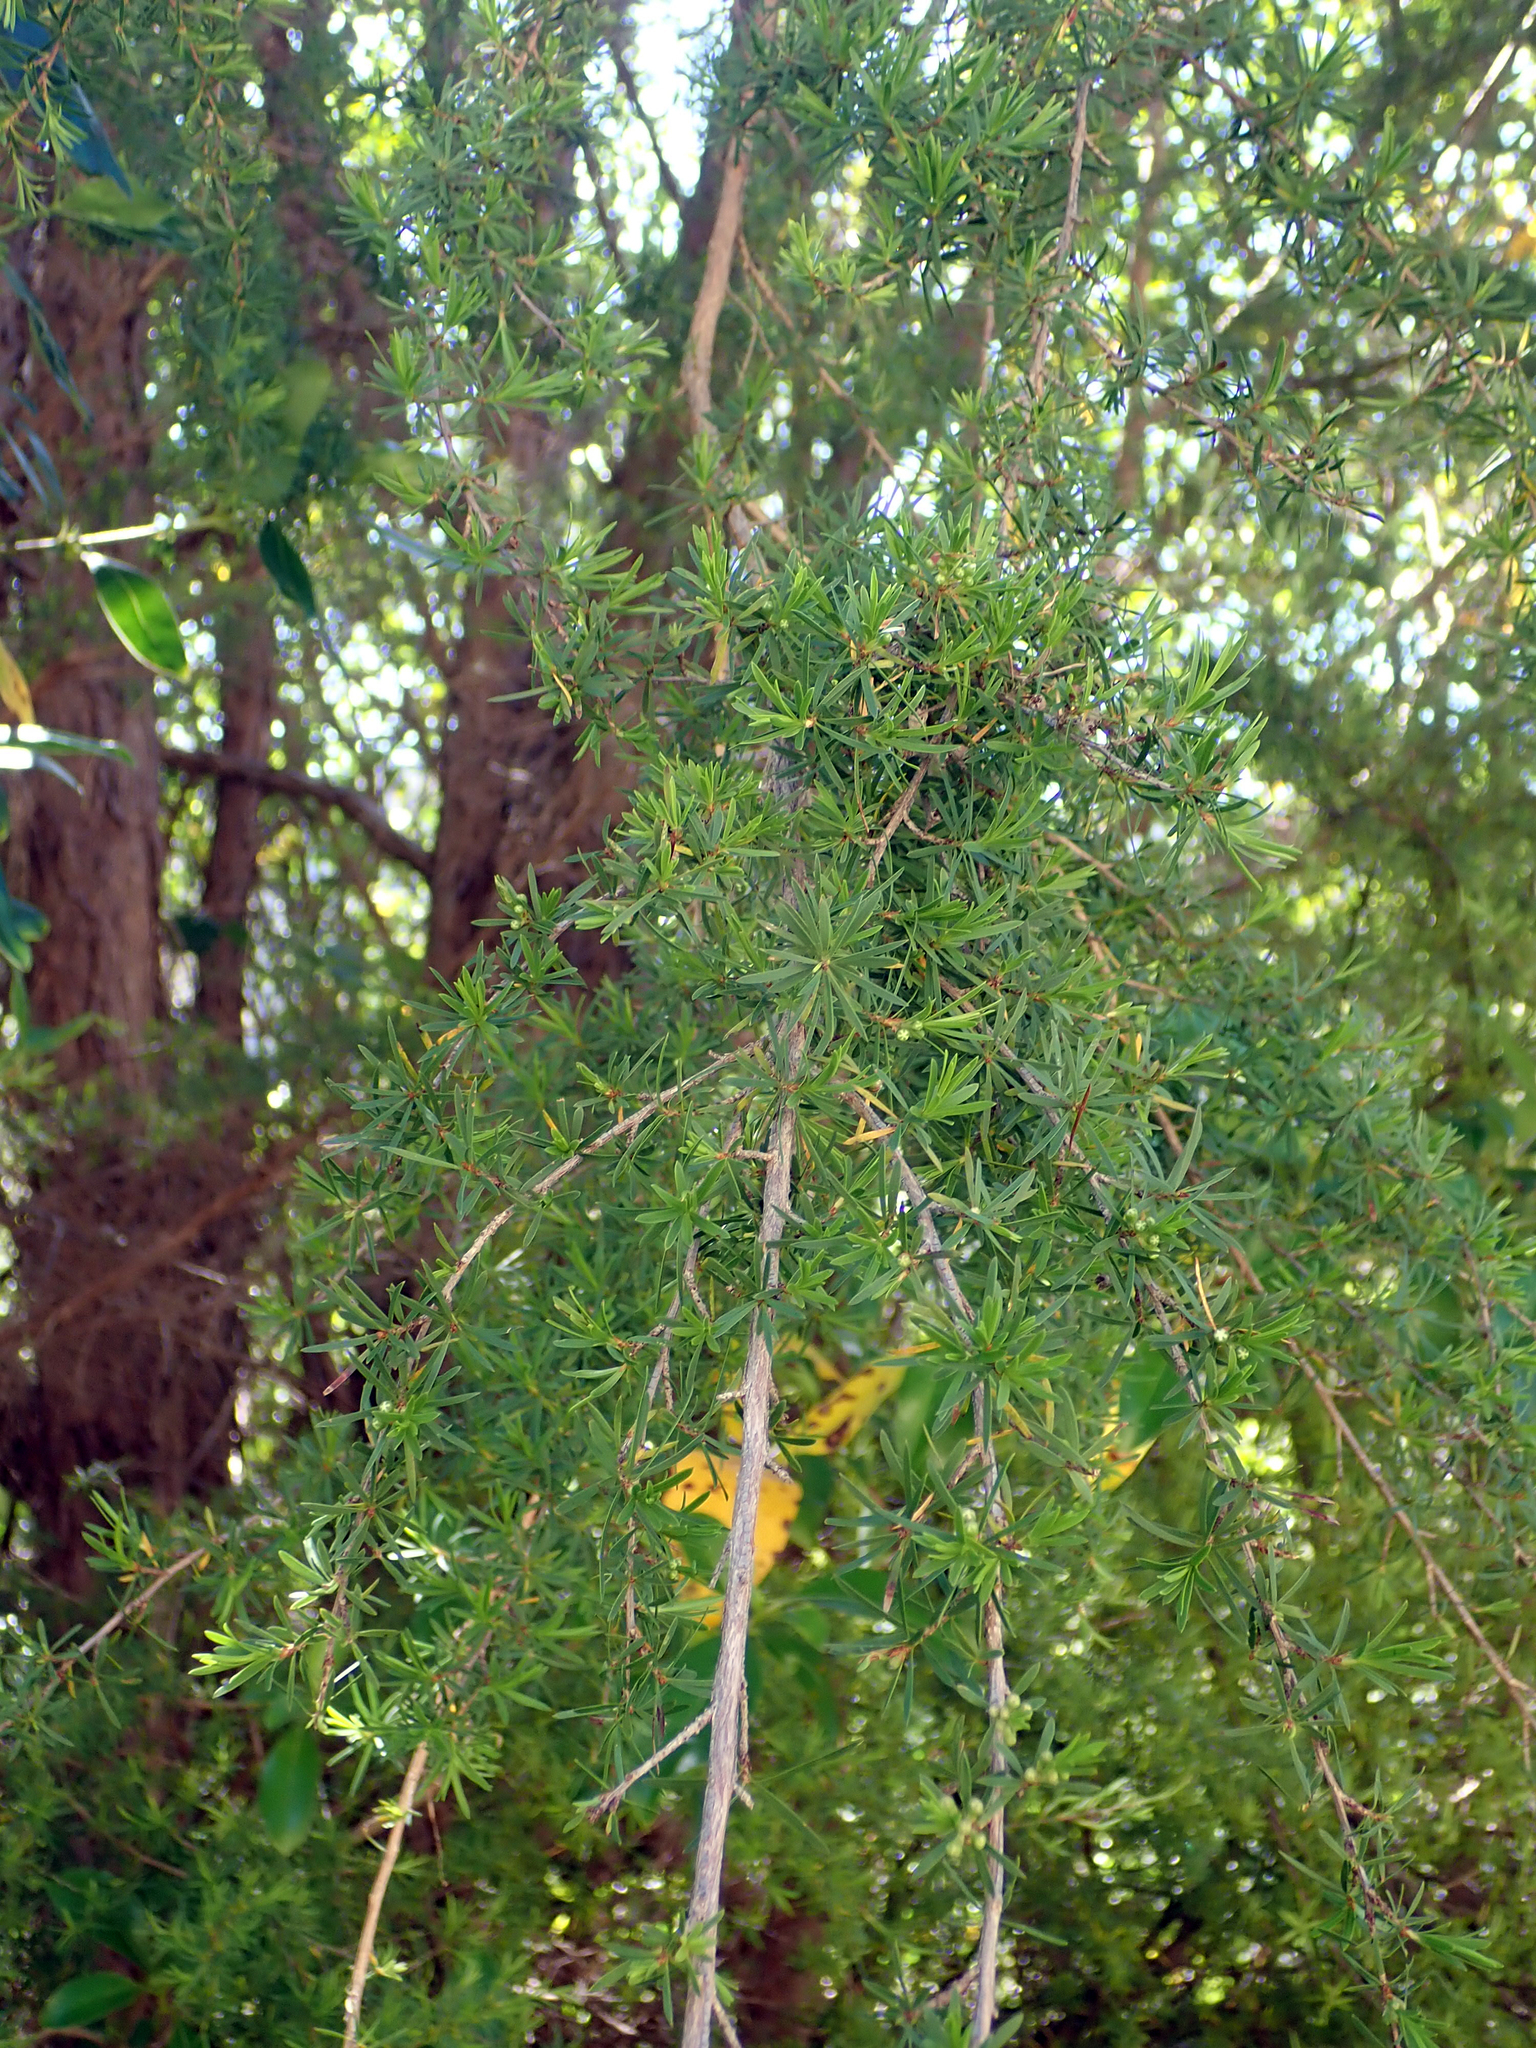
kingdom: Plantae
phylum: Tracheophyta
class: Magnoliopsida
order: Myrtales
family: Myrtaceae
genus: Kunzea
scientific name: Kunzea ericoides
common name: Burgan
